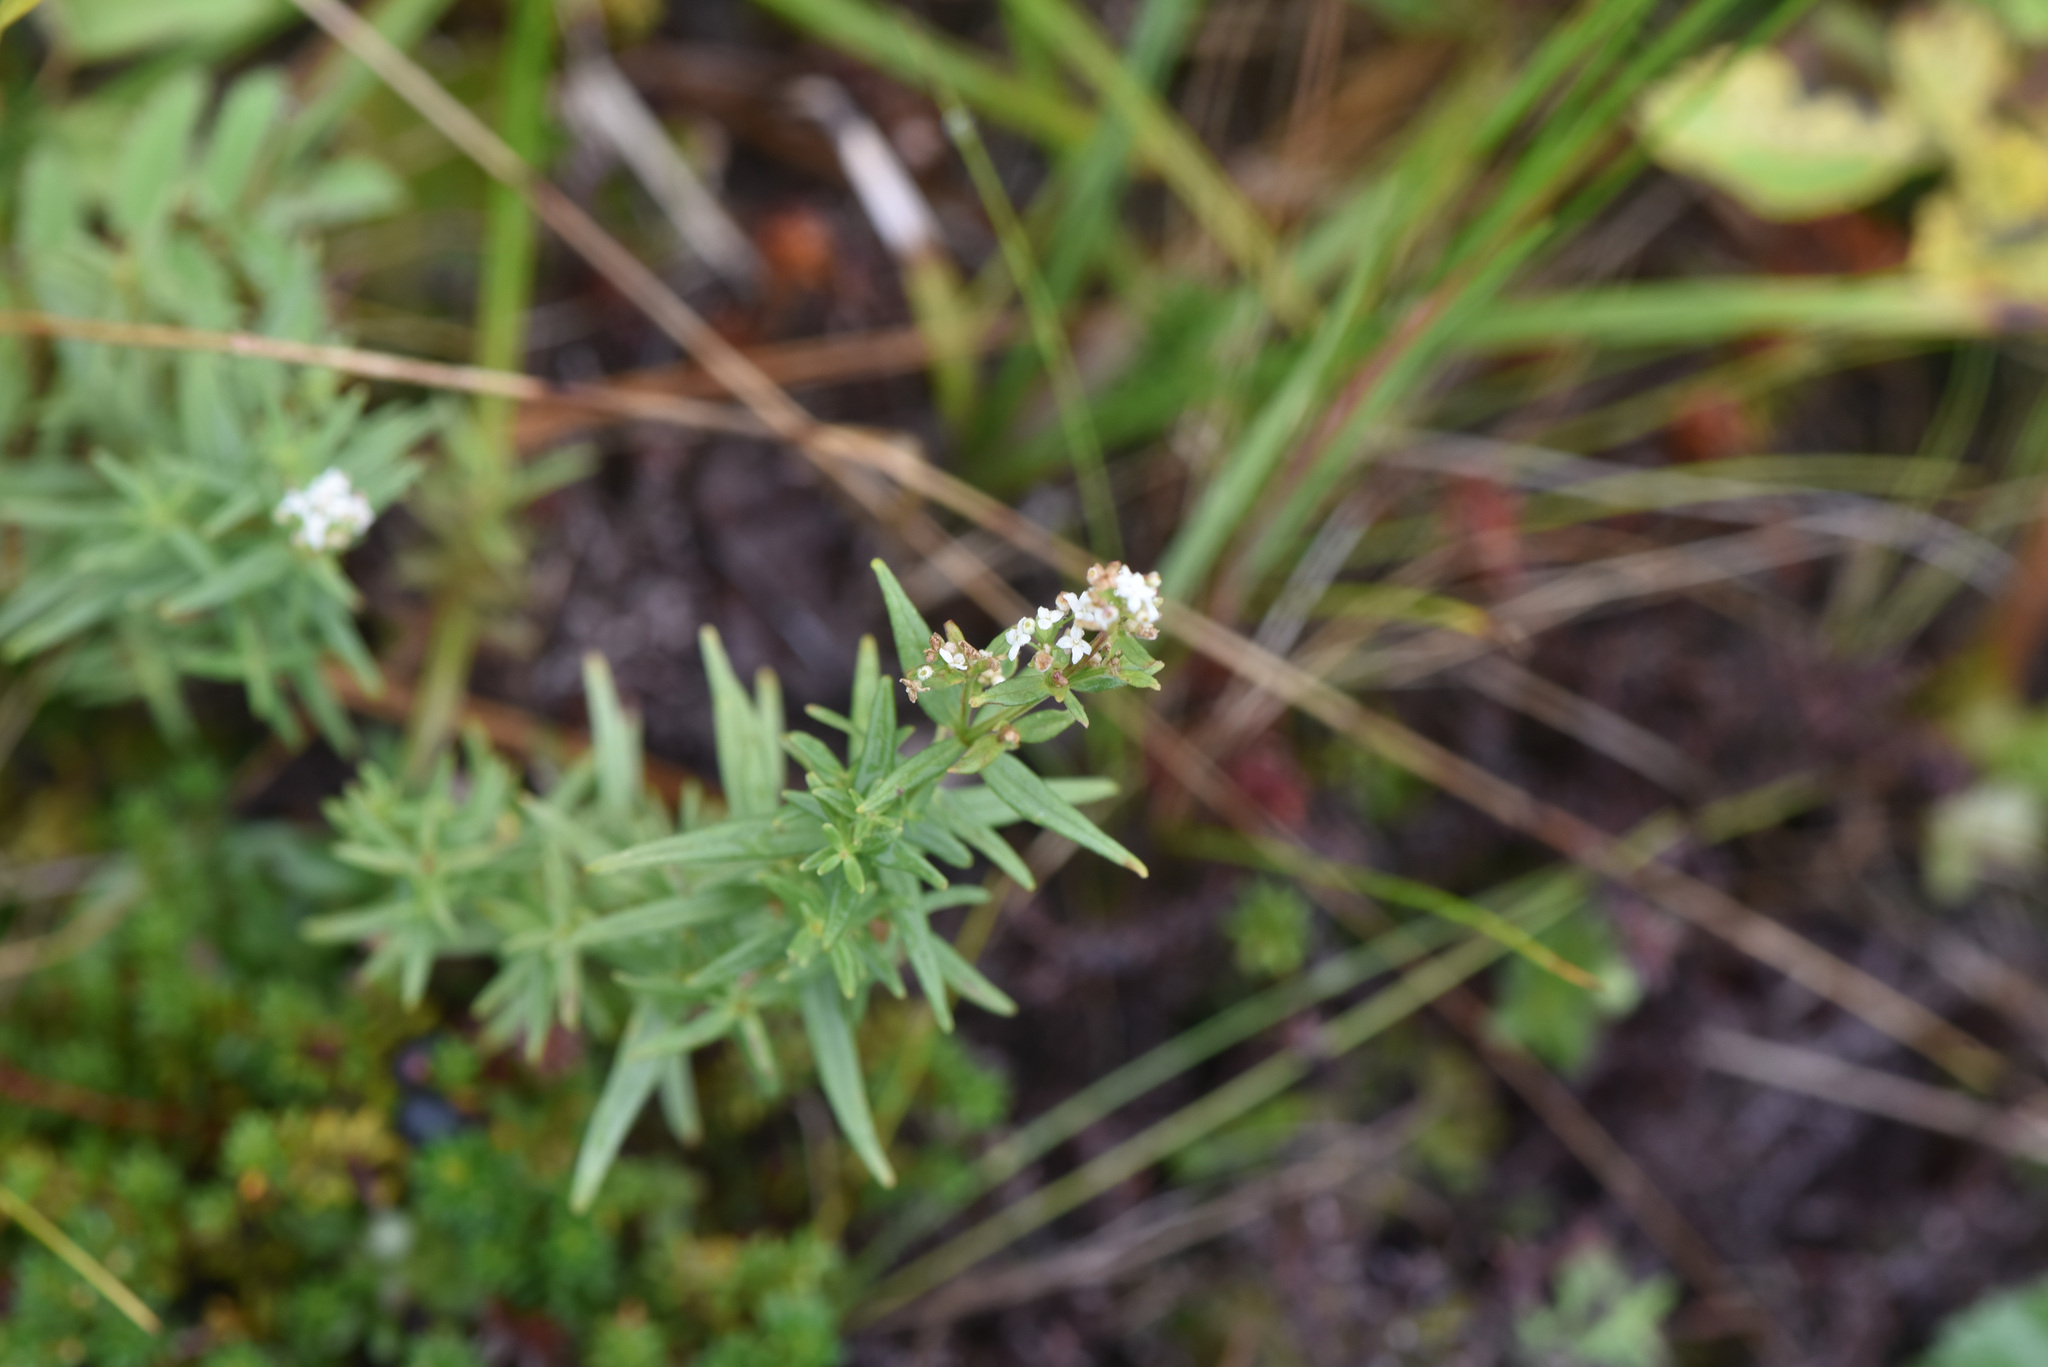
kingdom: Plantae
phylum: Tracheophyta
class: Magnoliopsida
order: Gentianales
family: Rubiaceae
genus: Galium
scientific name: Galium boreale
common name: Northern bedstraw
